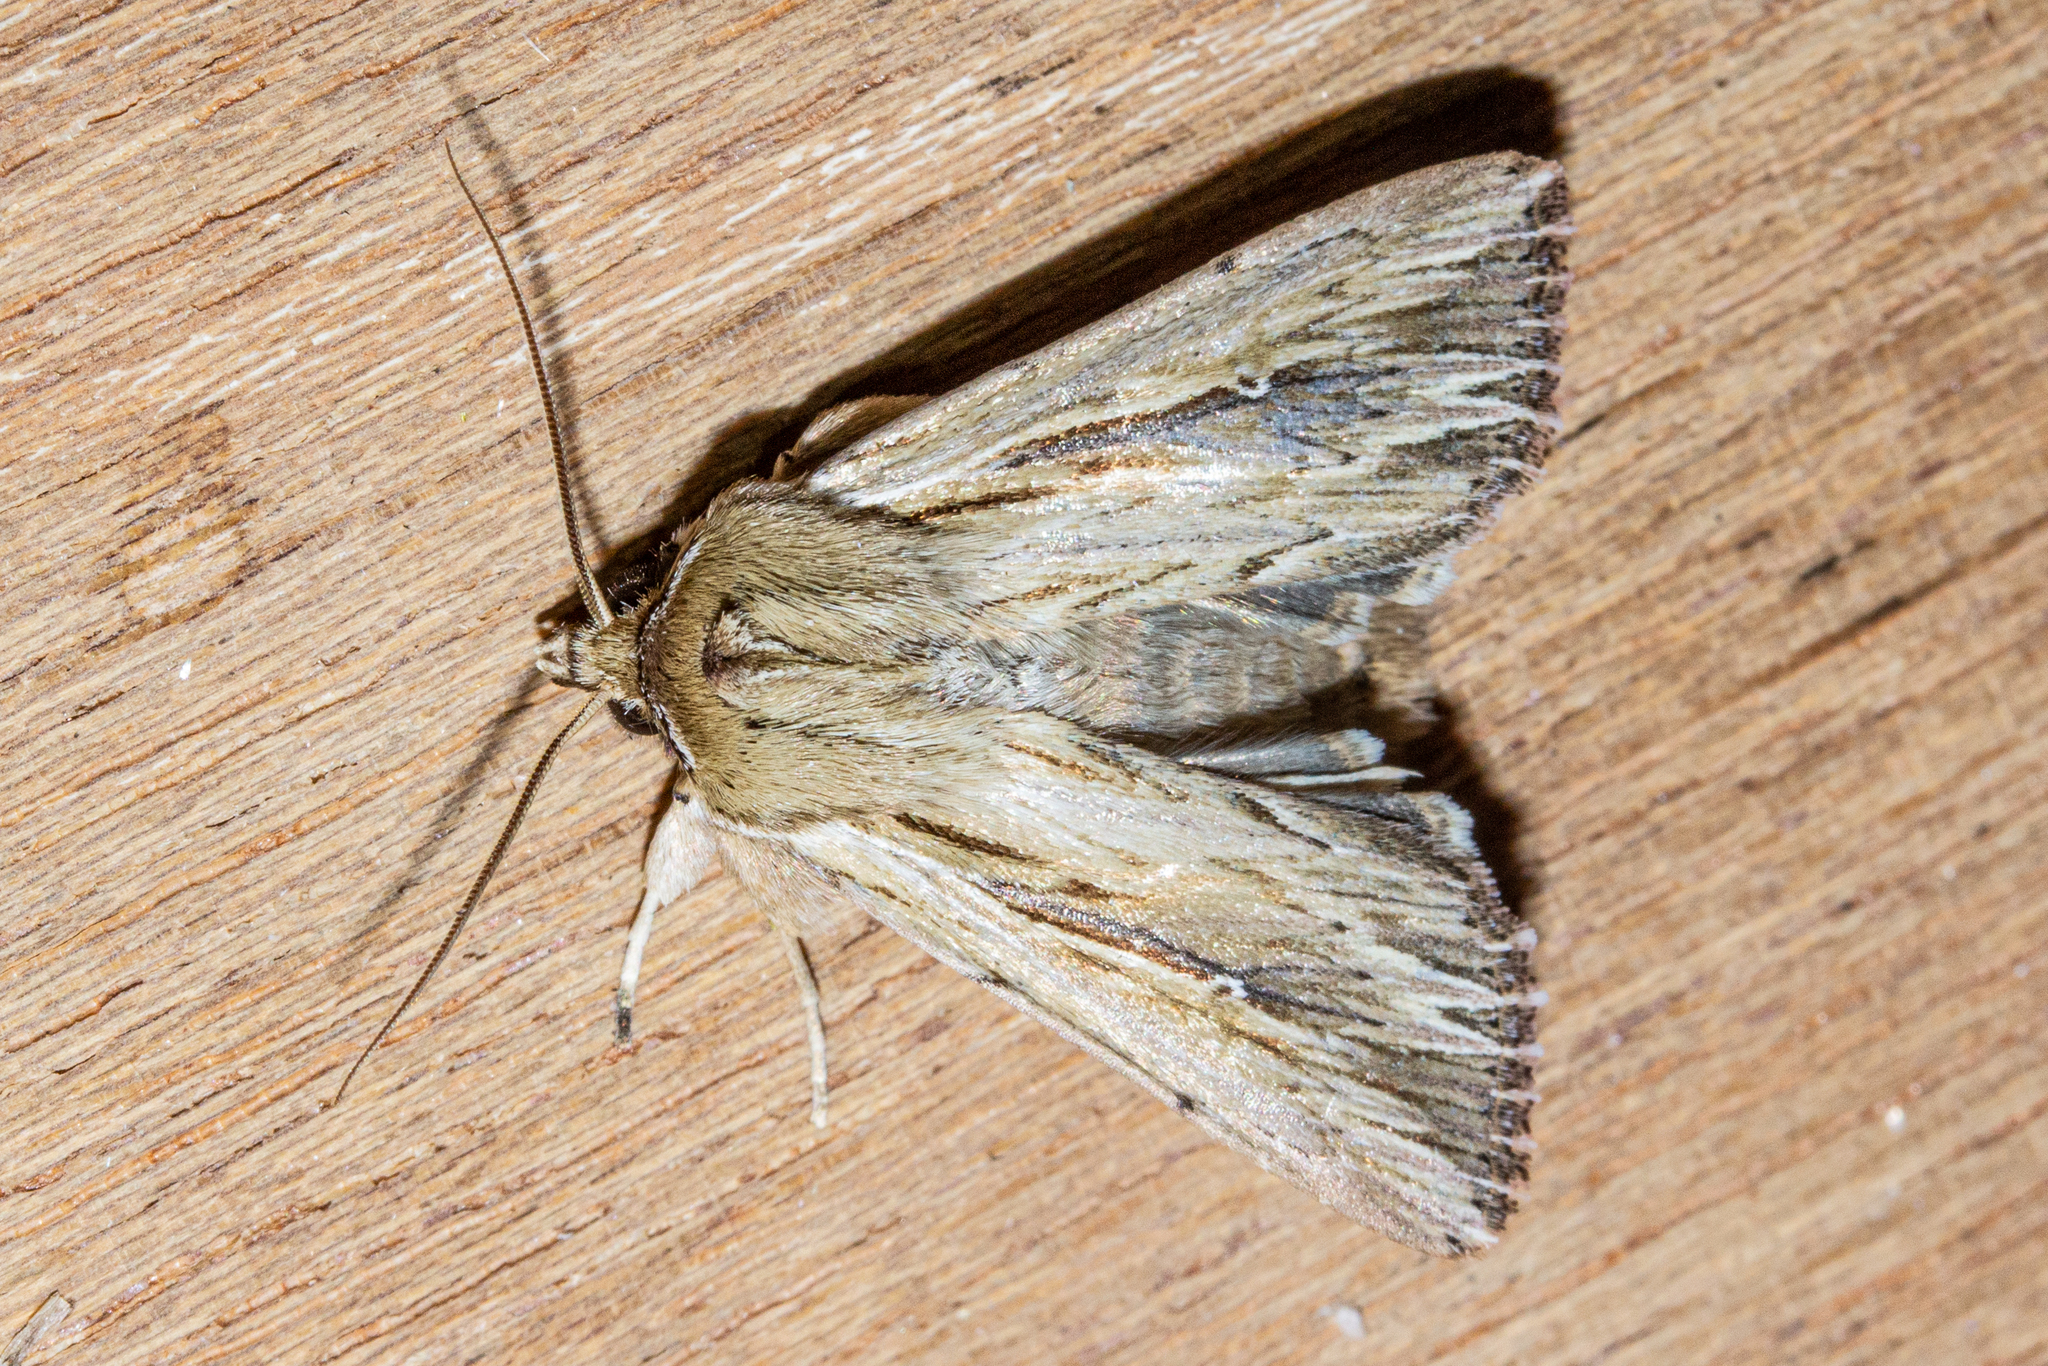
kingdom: Animalia
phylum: Arthropoda
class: Insecta
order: Lepidoptera
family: Noctuidae
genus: Persectania
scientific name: Persectania aversa
